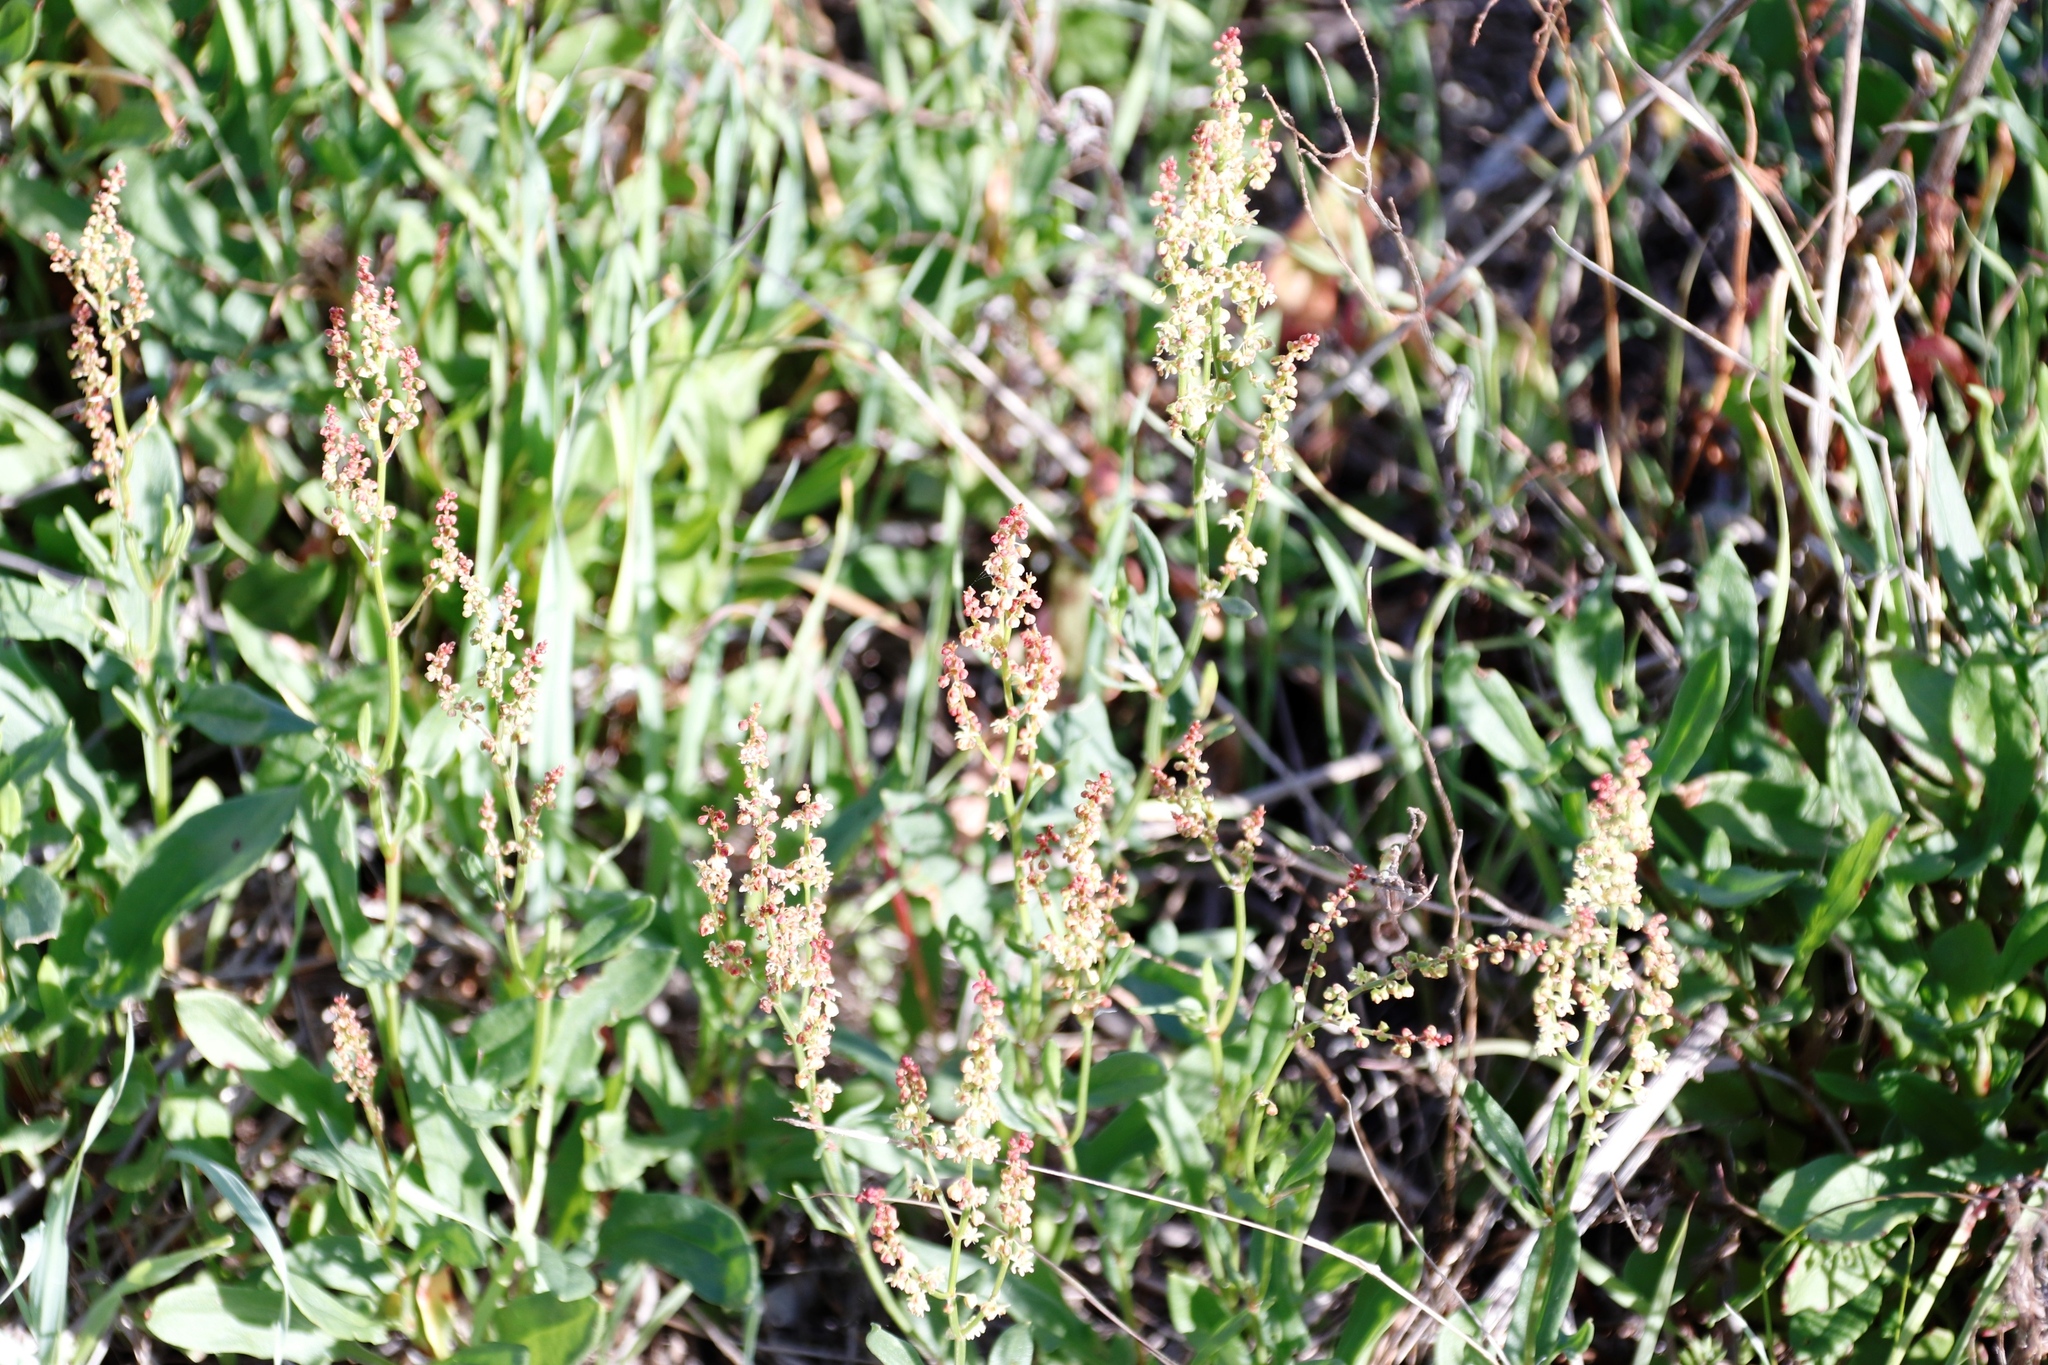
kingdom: Plantae
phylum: Tracheophyta
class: Magnoliopsida
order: Caryophyllales
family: Polygonaceae
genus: Rumex
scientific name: Rumex acetosella
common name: Common sheep sorrel
